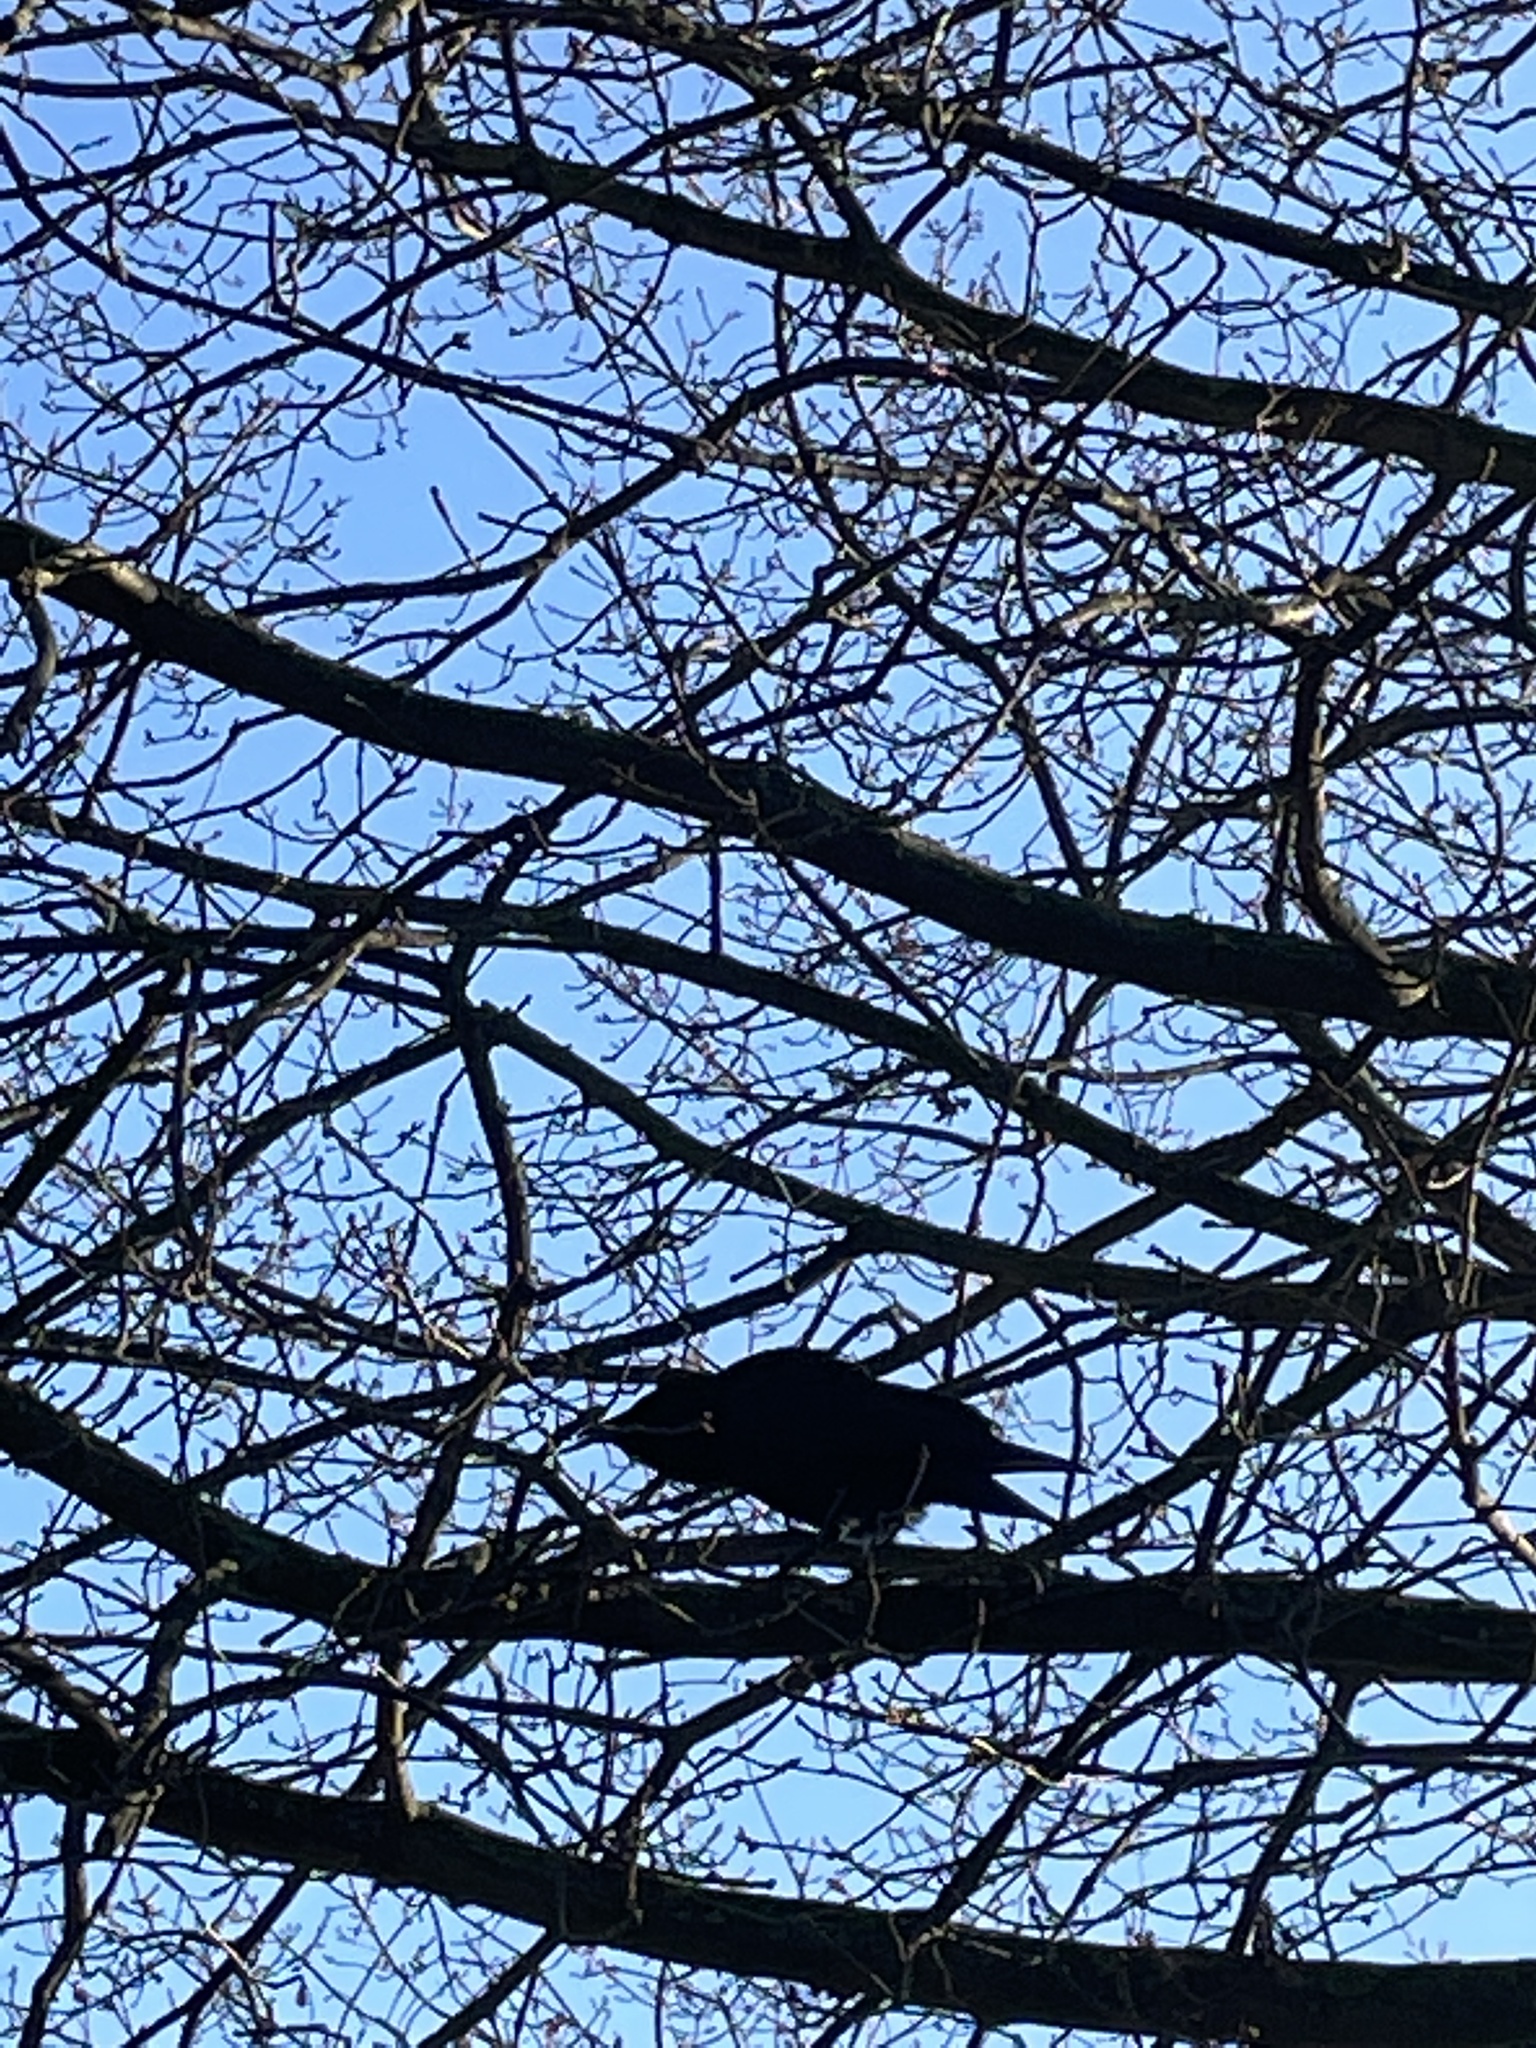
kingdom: Animalia
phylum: Chordata
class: Aves
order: Passeriformes
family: Corvidae
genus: Corvus
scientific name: Corvus corone
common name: Carrion crow
